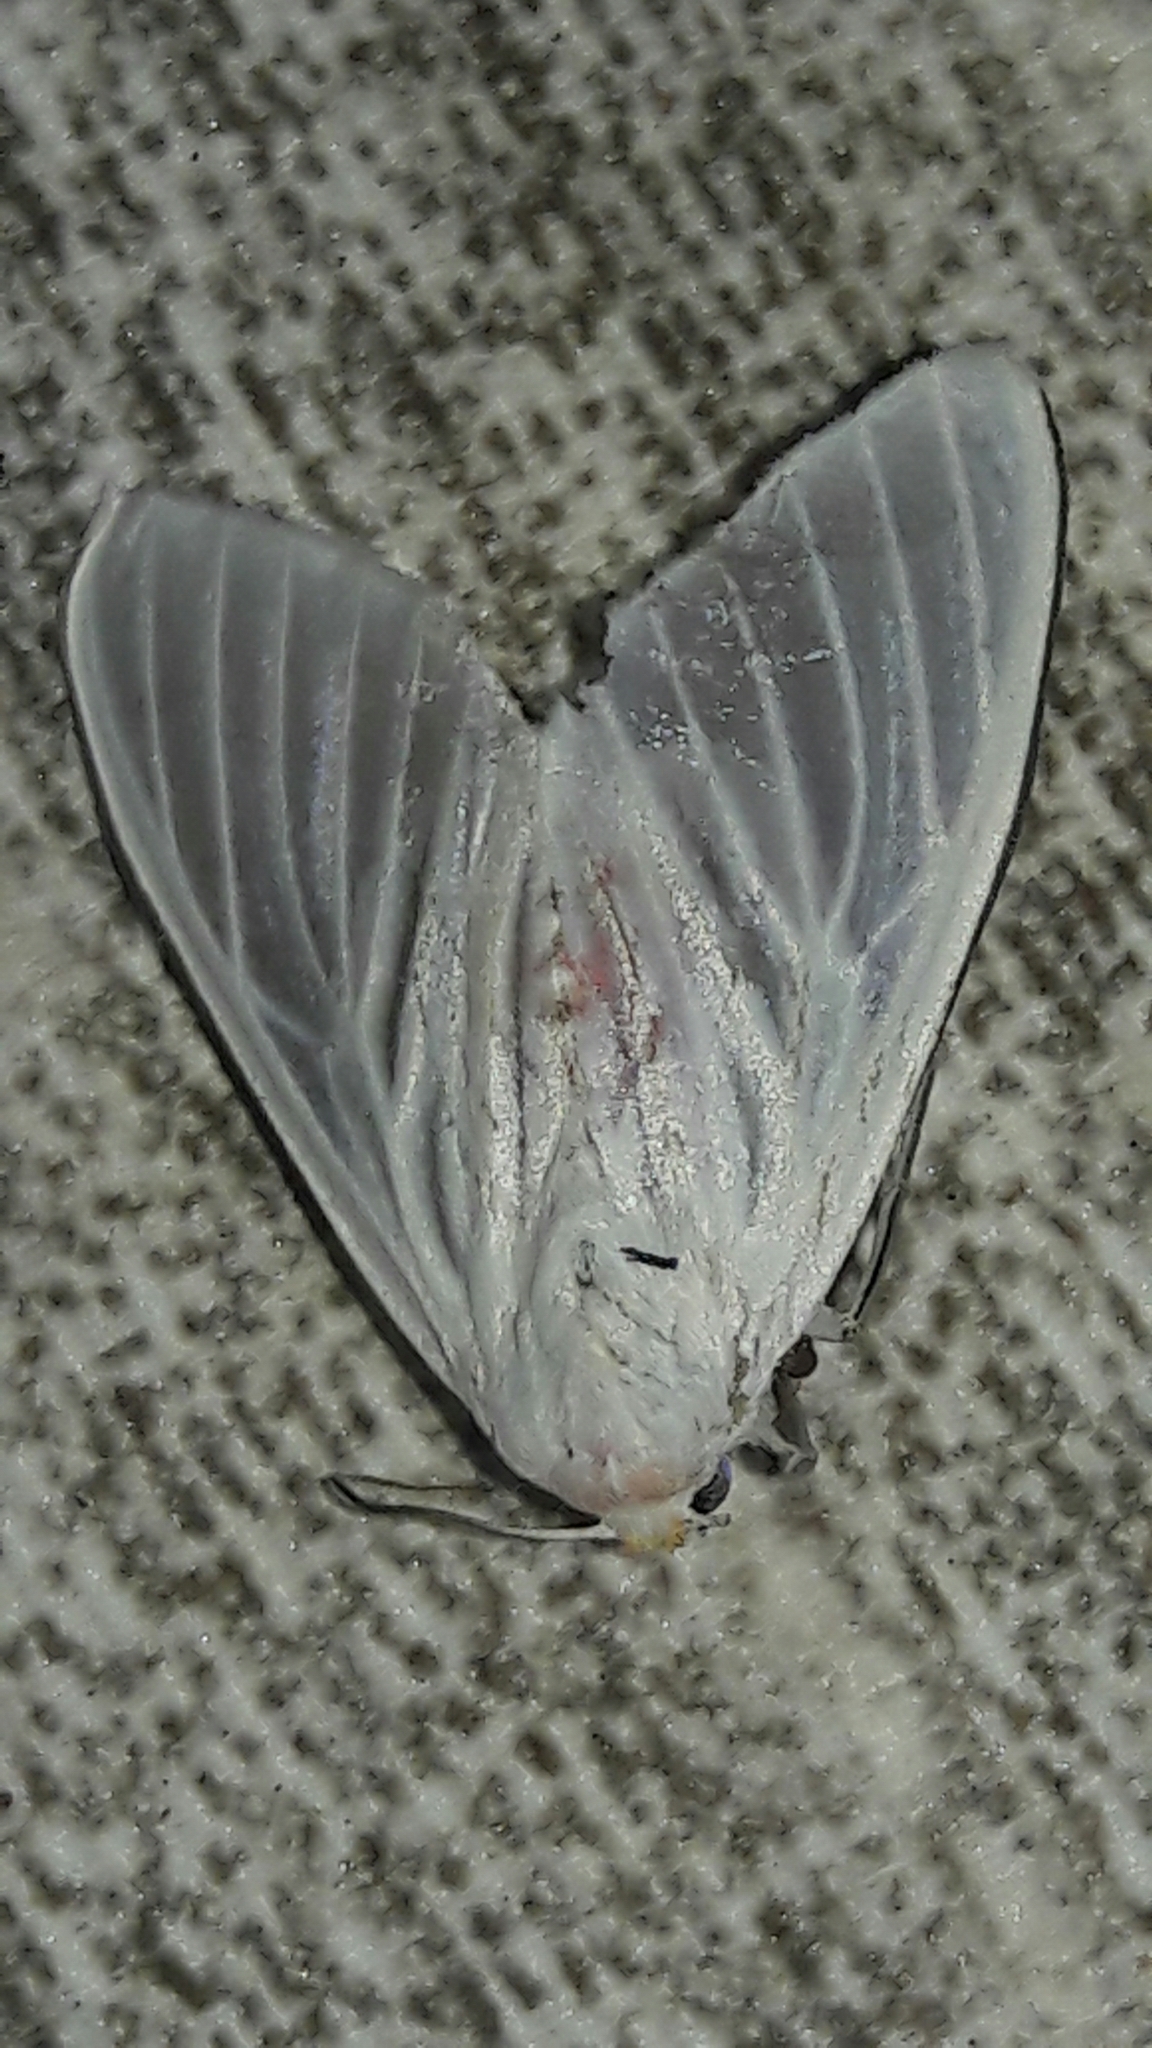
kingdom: Animalia
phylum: Arthropoda
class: Insecta
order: Lepidoptera
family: Erebidae
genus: Eupseudosoma
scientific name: Eupseudosoma involuta
